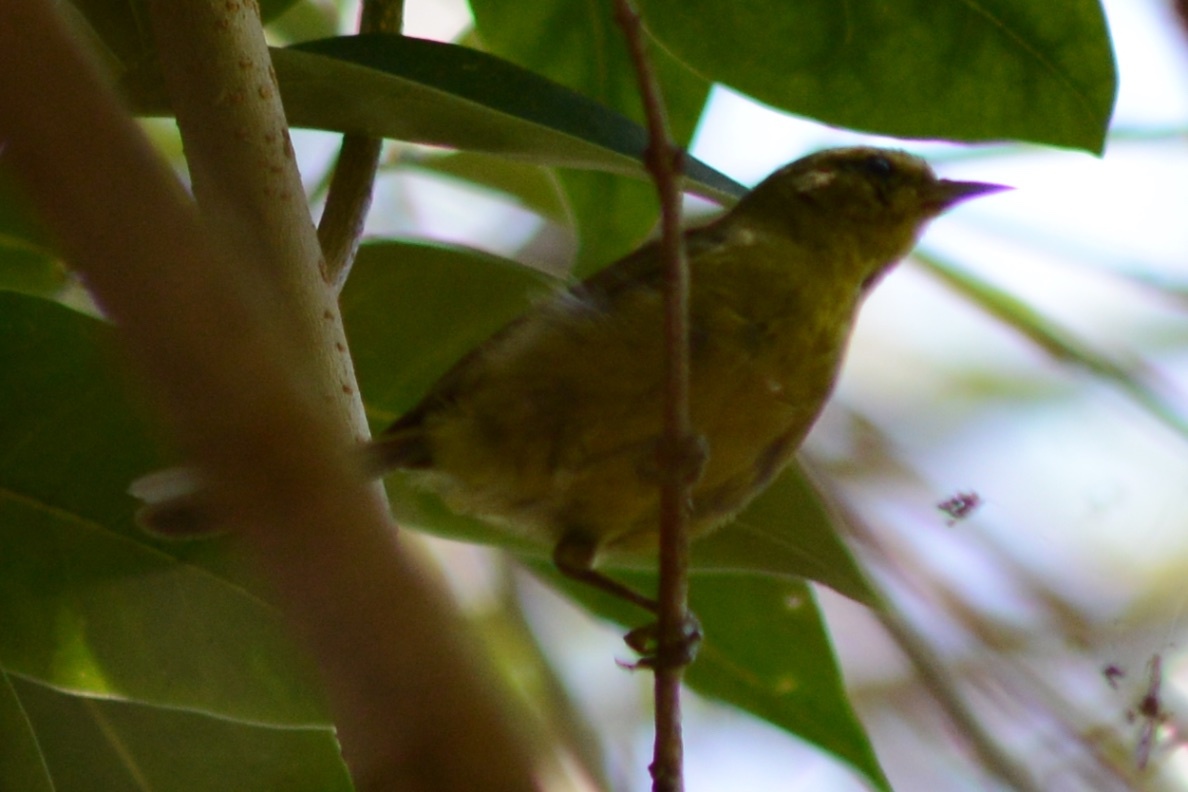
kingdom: Animalia
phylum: Chordata
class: Aves
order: Passeriformes
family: Parulidae
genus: Leiothlypis
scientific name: Leiothlypis celata
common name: Orange-crowned warbler
